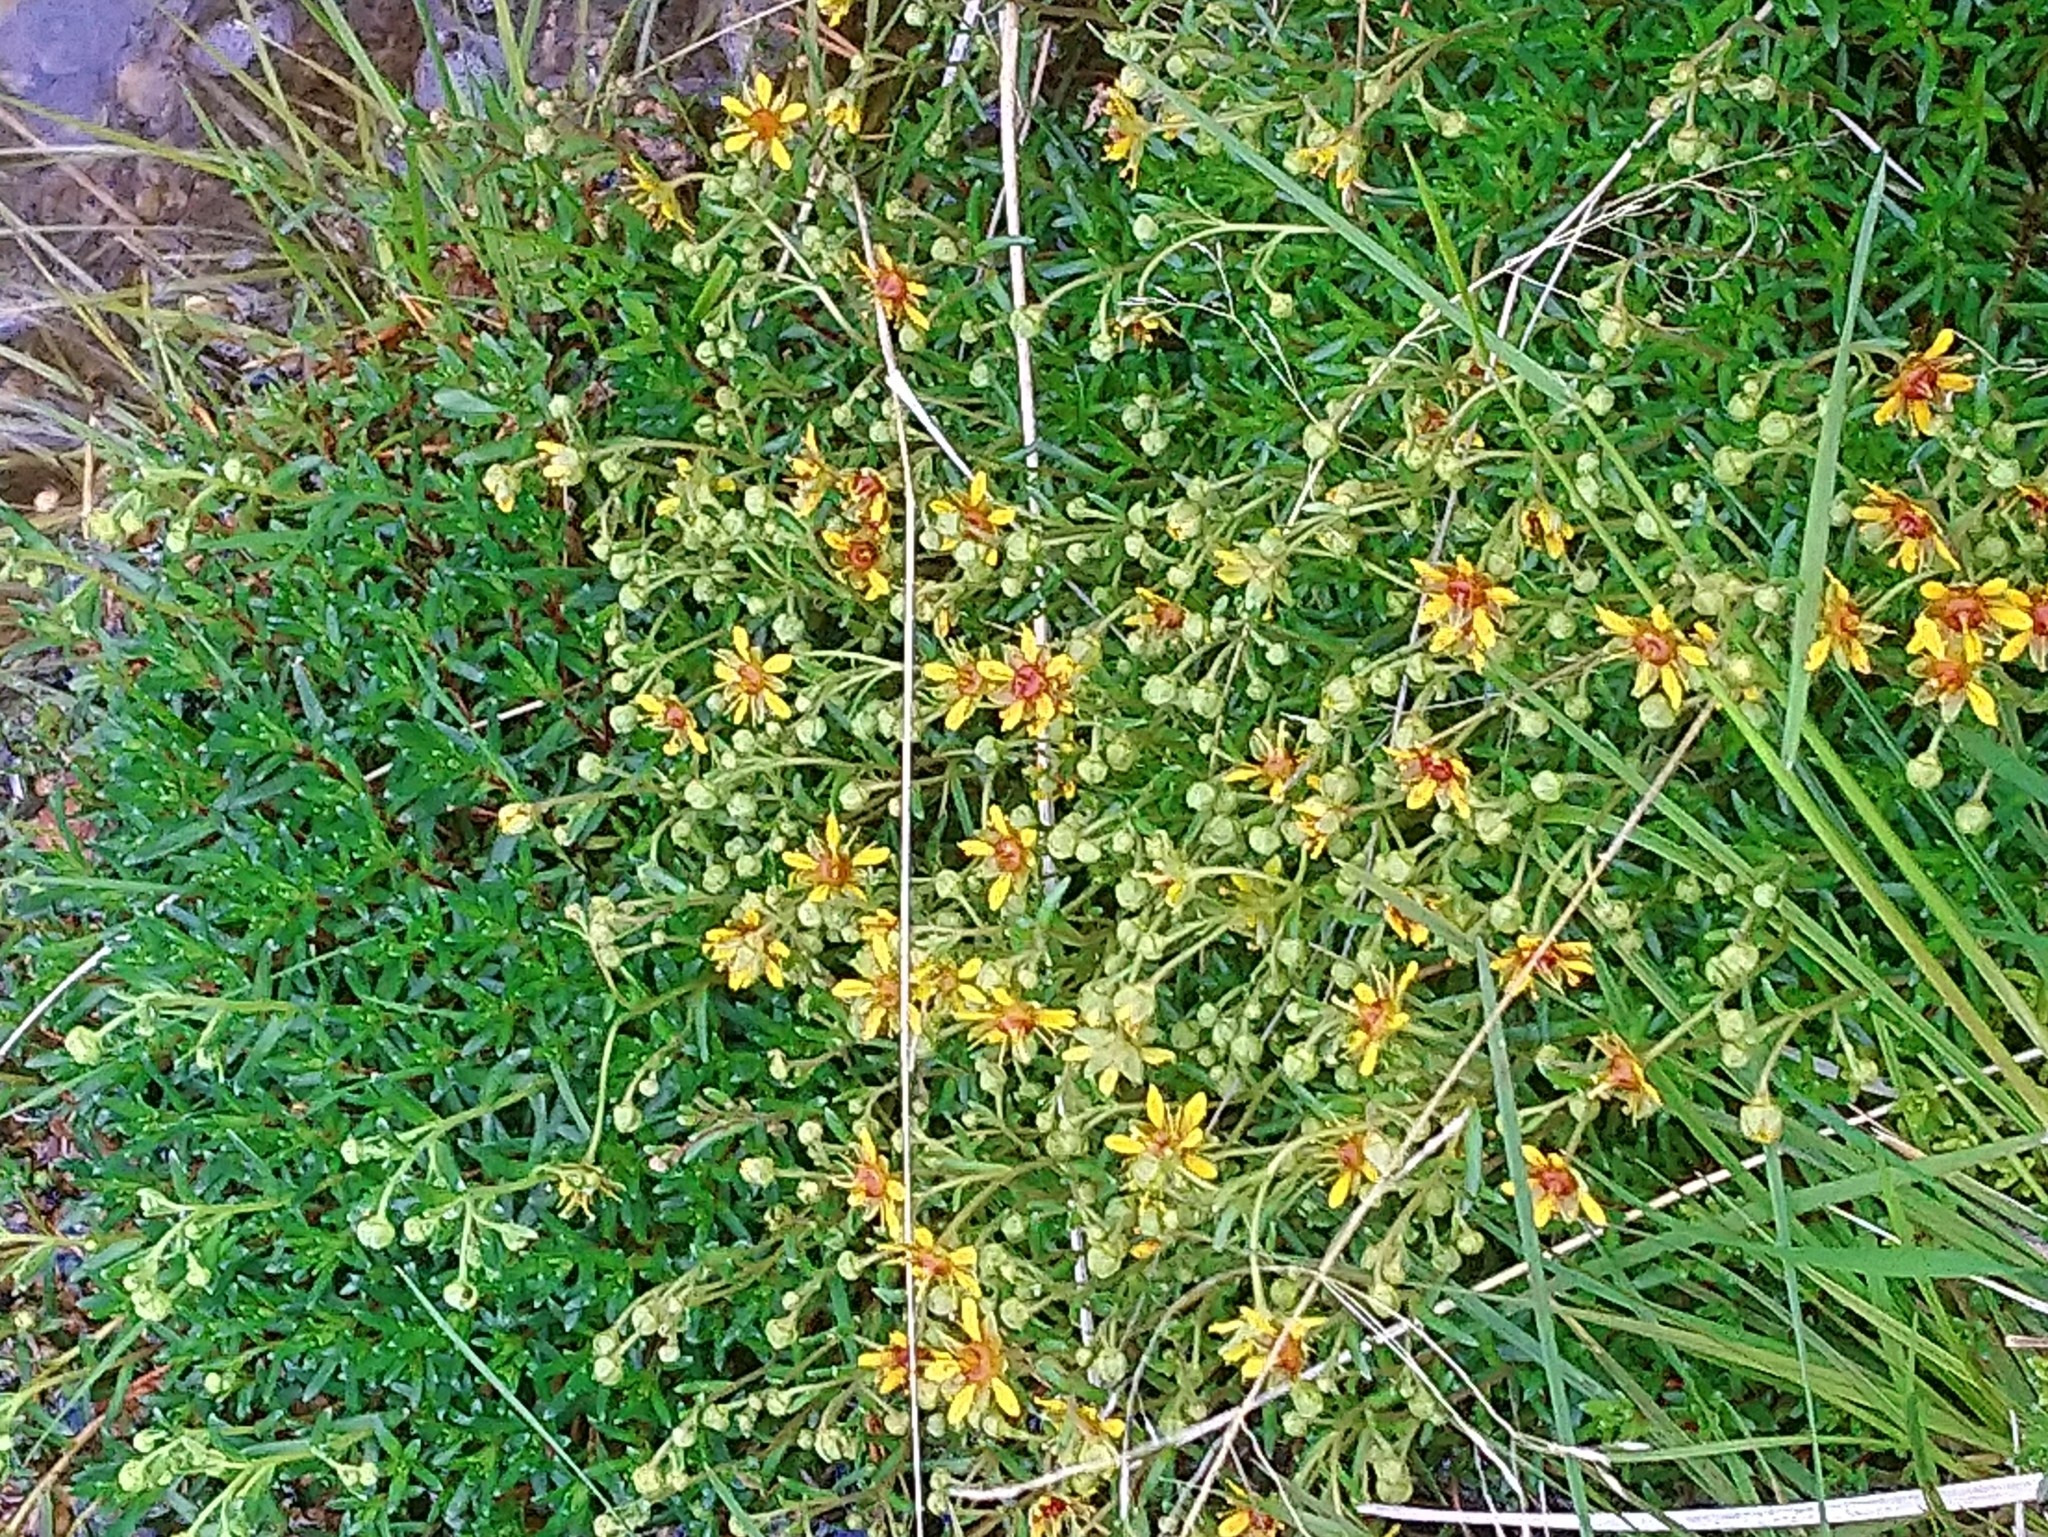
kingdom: Plantae
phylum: Tracheophyta
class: Magnoliopsida
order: Saxifragales
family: Saxifragaceae
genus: Saxifraga
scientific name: Saxifraga aizoides
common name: Yellow mountain saxifrage
